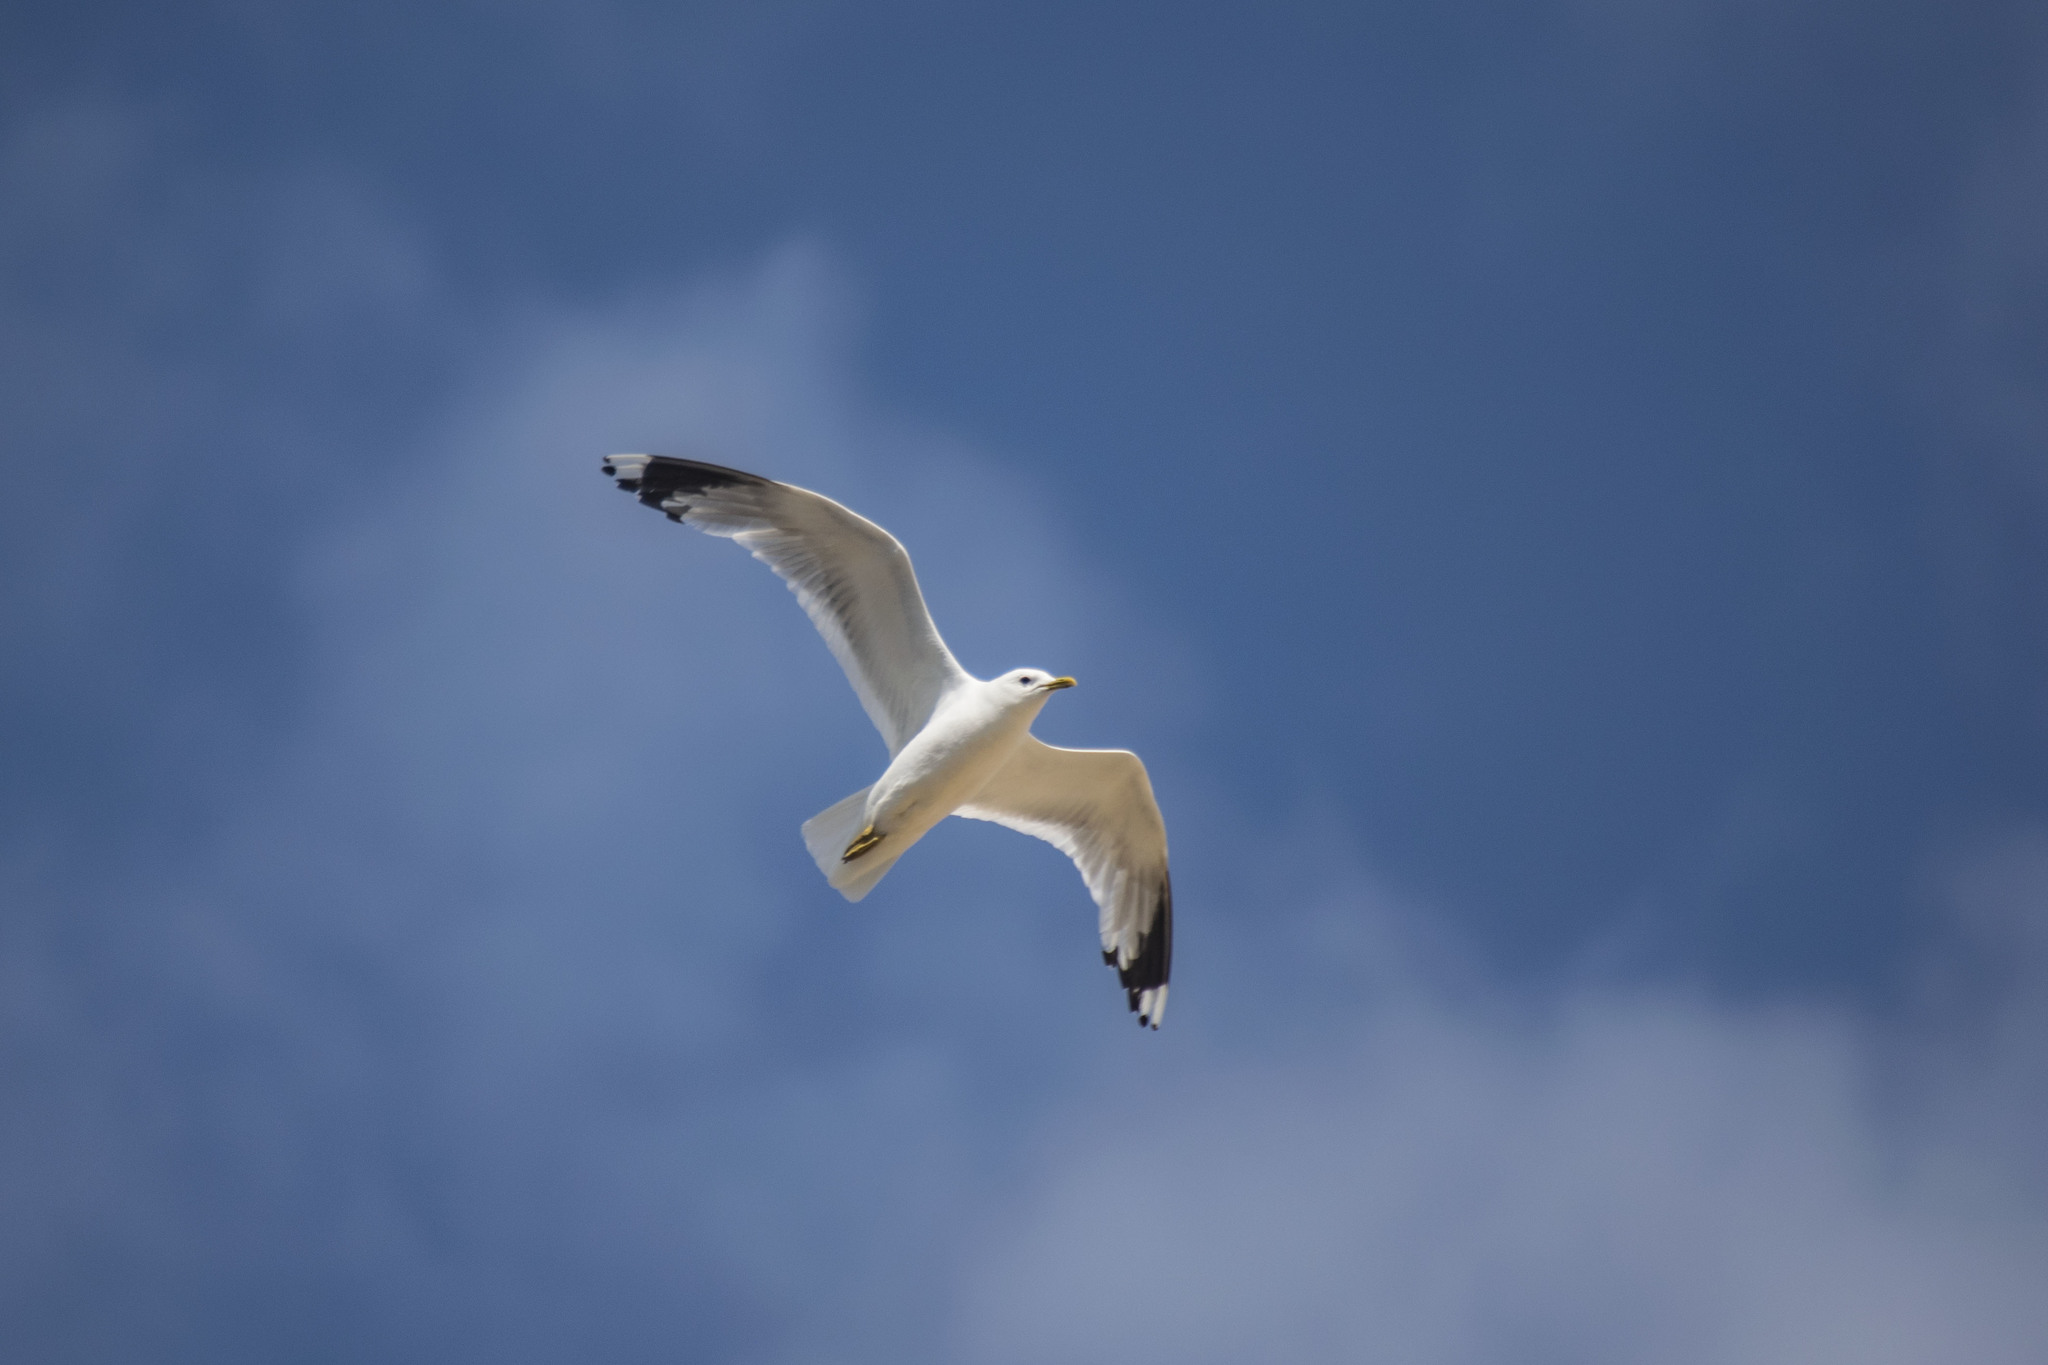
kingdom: Animalia
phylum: Chordata
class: Aves
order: Charadriiformes
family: Laridae
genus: Larus
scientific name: Larus canus
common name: Mew gull
